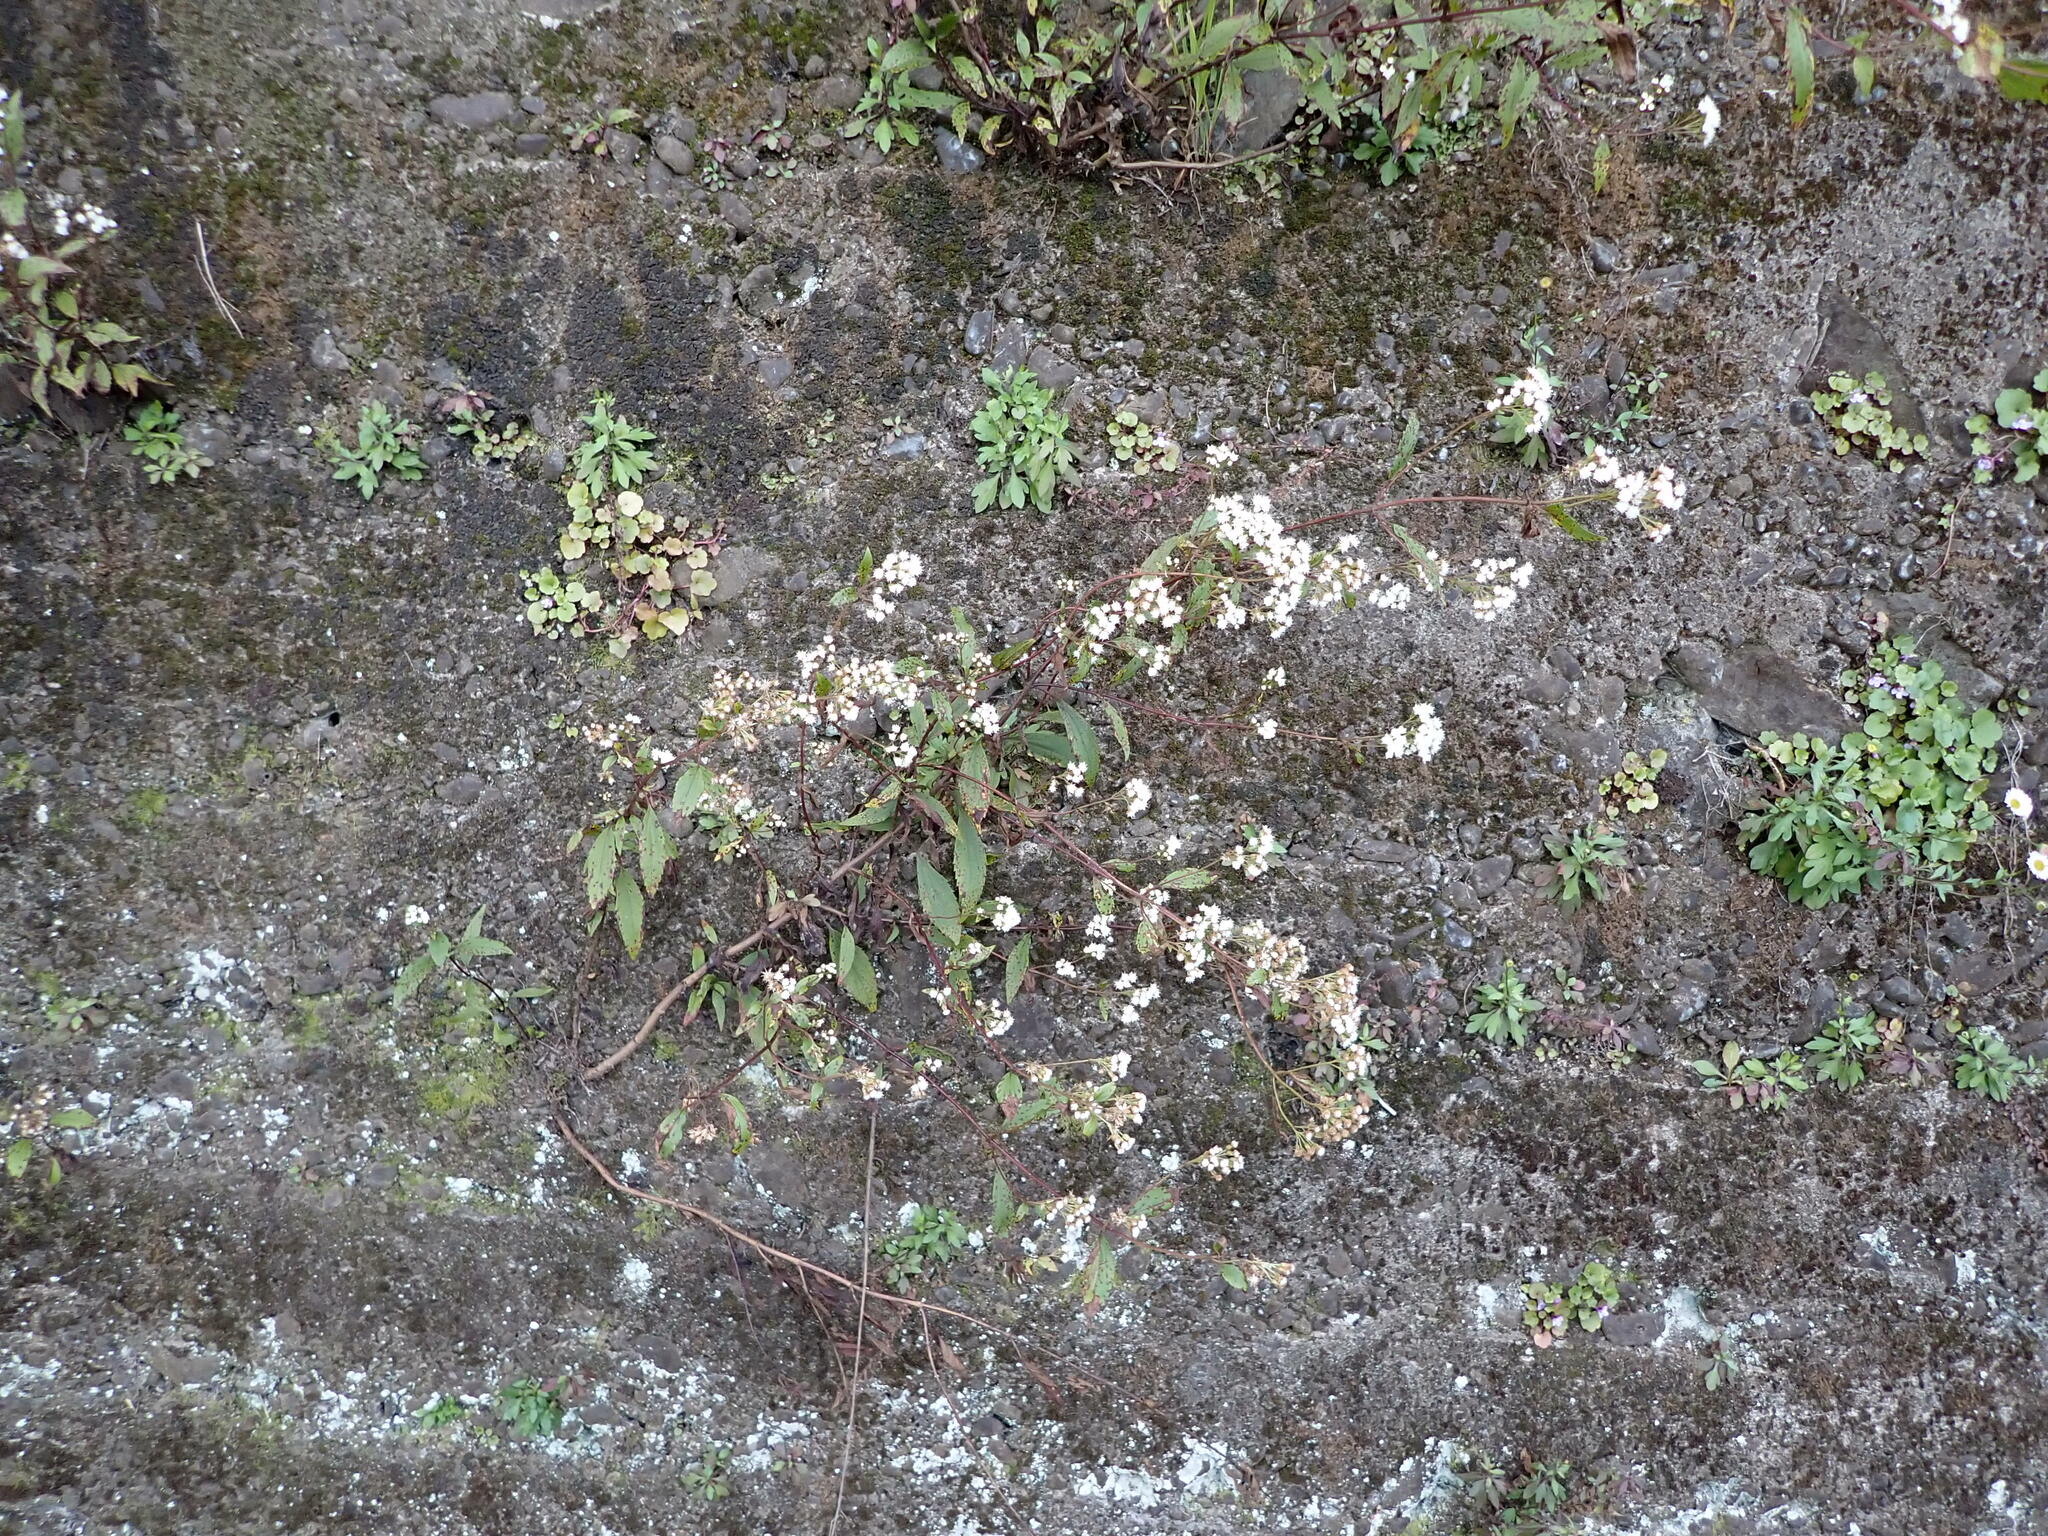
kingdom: Plantae
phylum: Tracheophyta
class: Magnoliopsida
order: Asterales
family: Asteraceae
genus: Ageratina
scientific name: Ageratina riparia
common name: Creeping croftonweed
